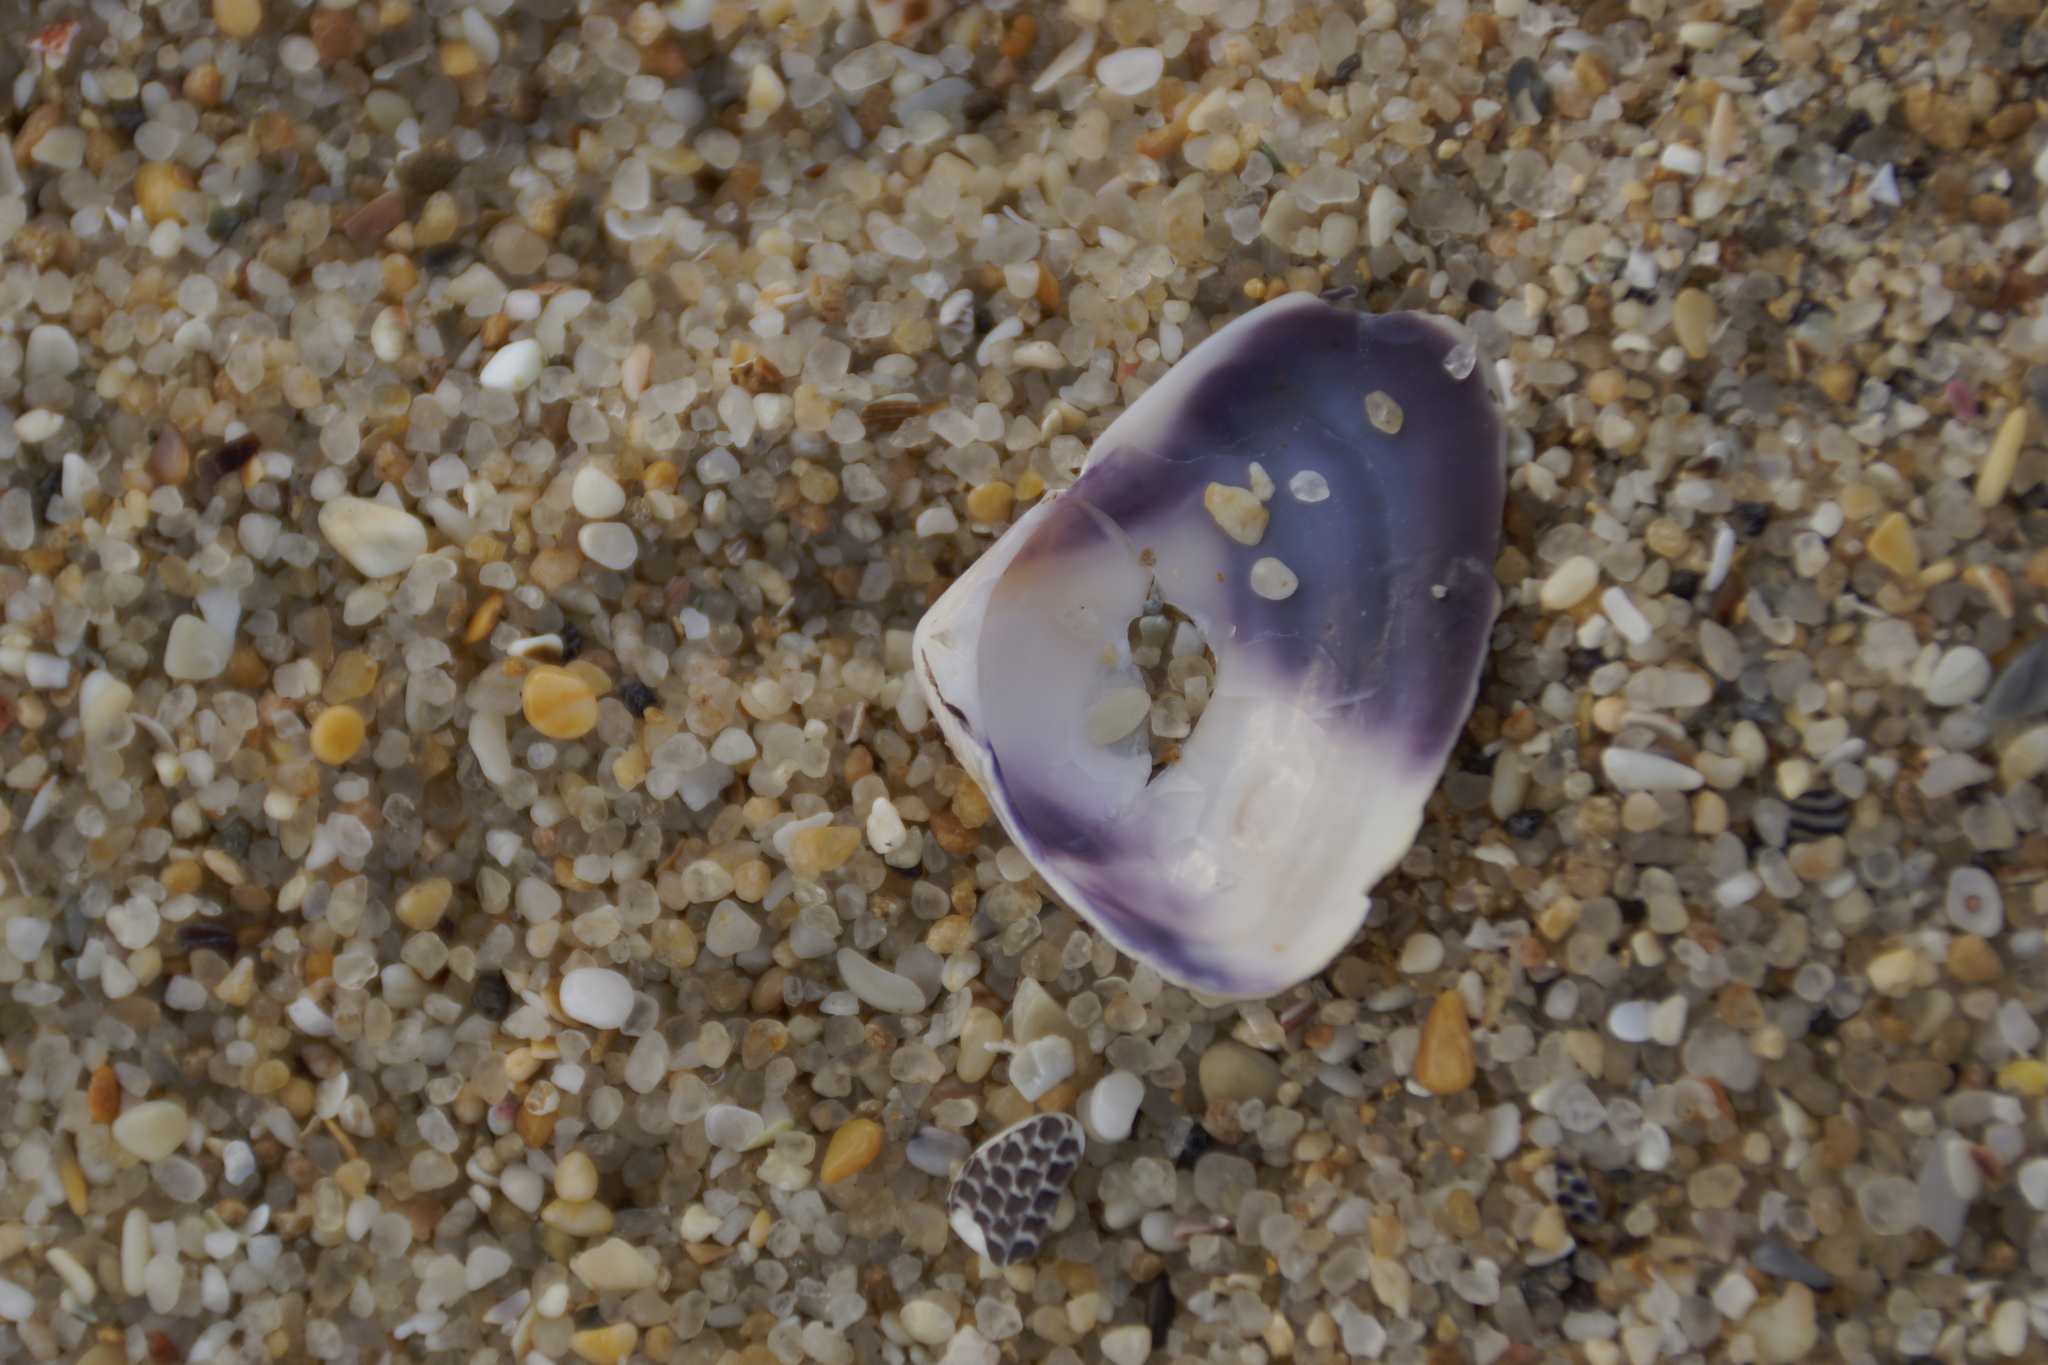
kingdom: Animalia
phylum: Mollusca
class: Bivalvia
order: Cardiida
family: Donacidae
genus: Latona
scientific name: Latona deltoides
